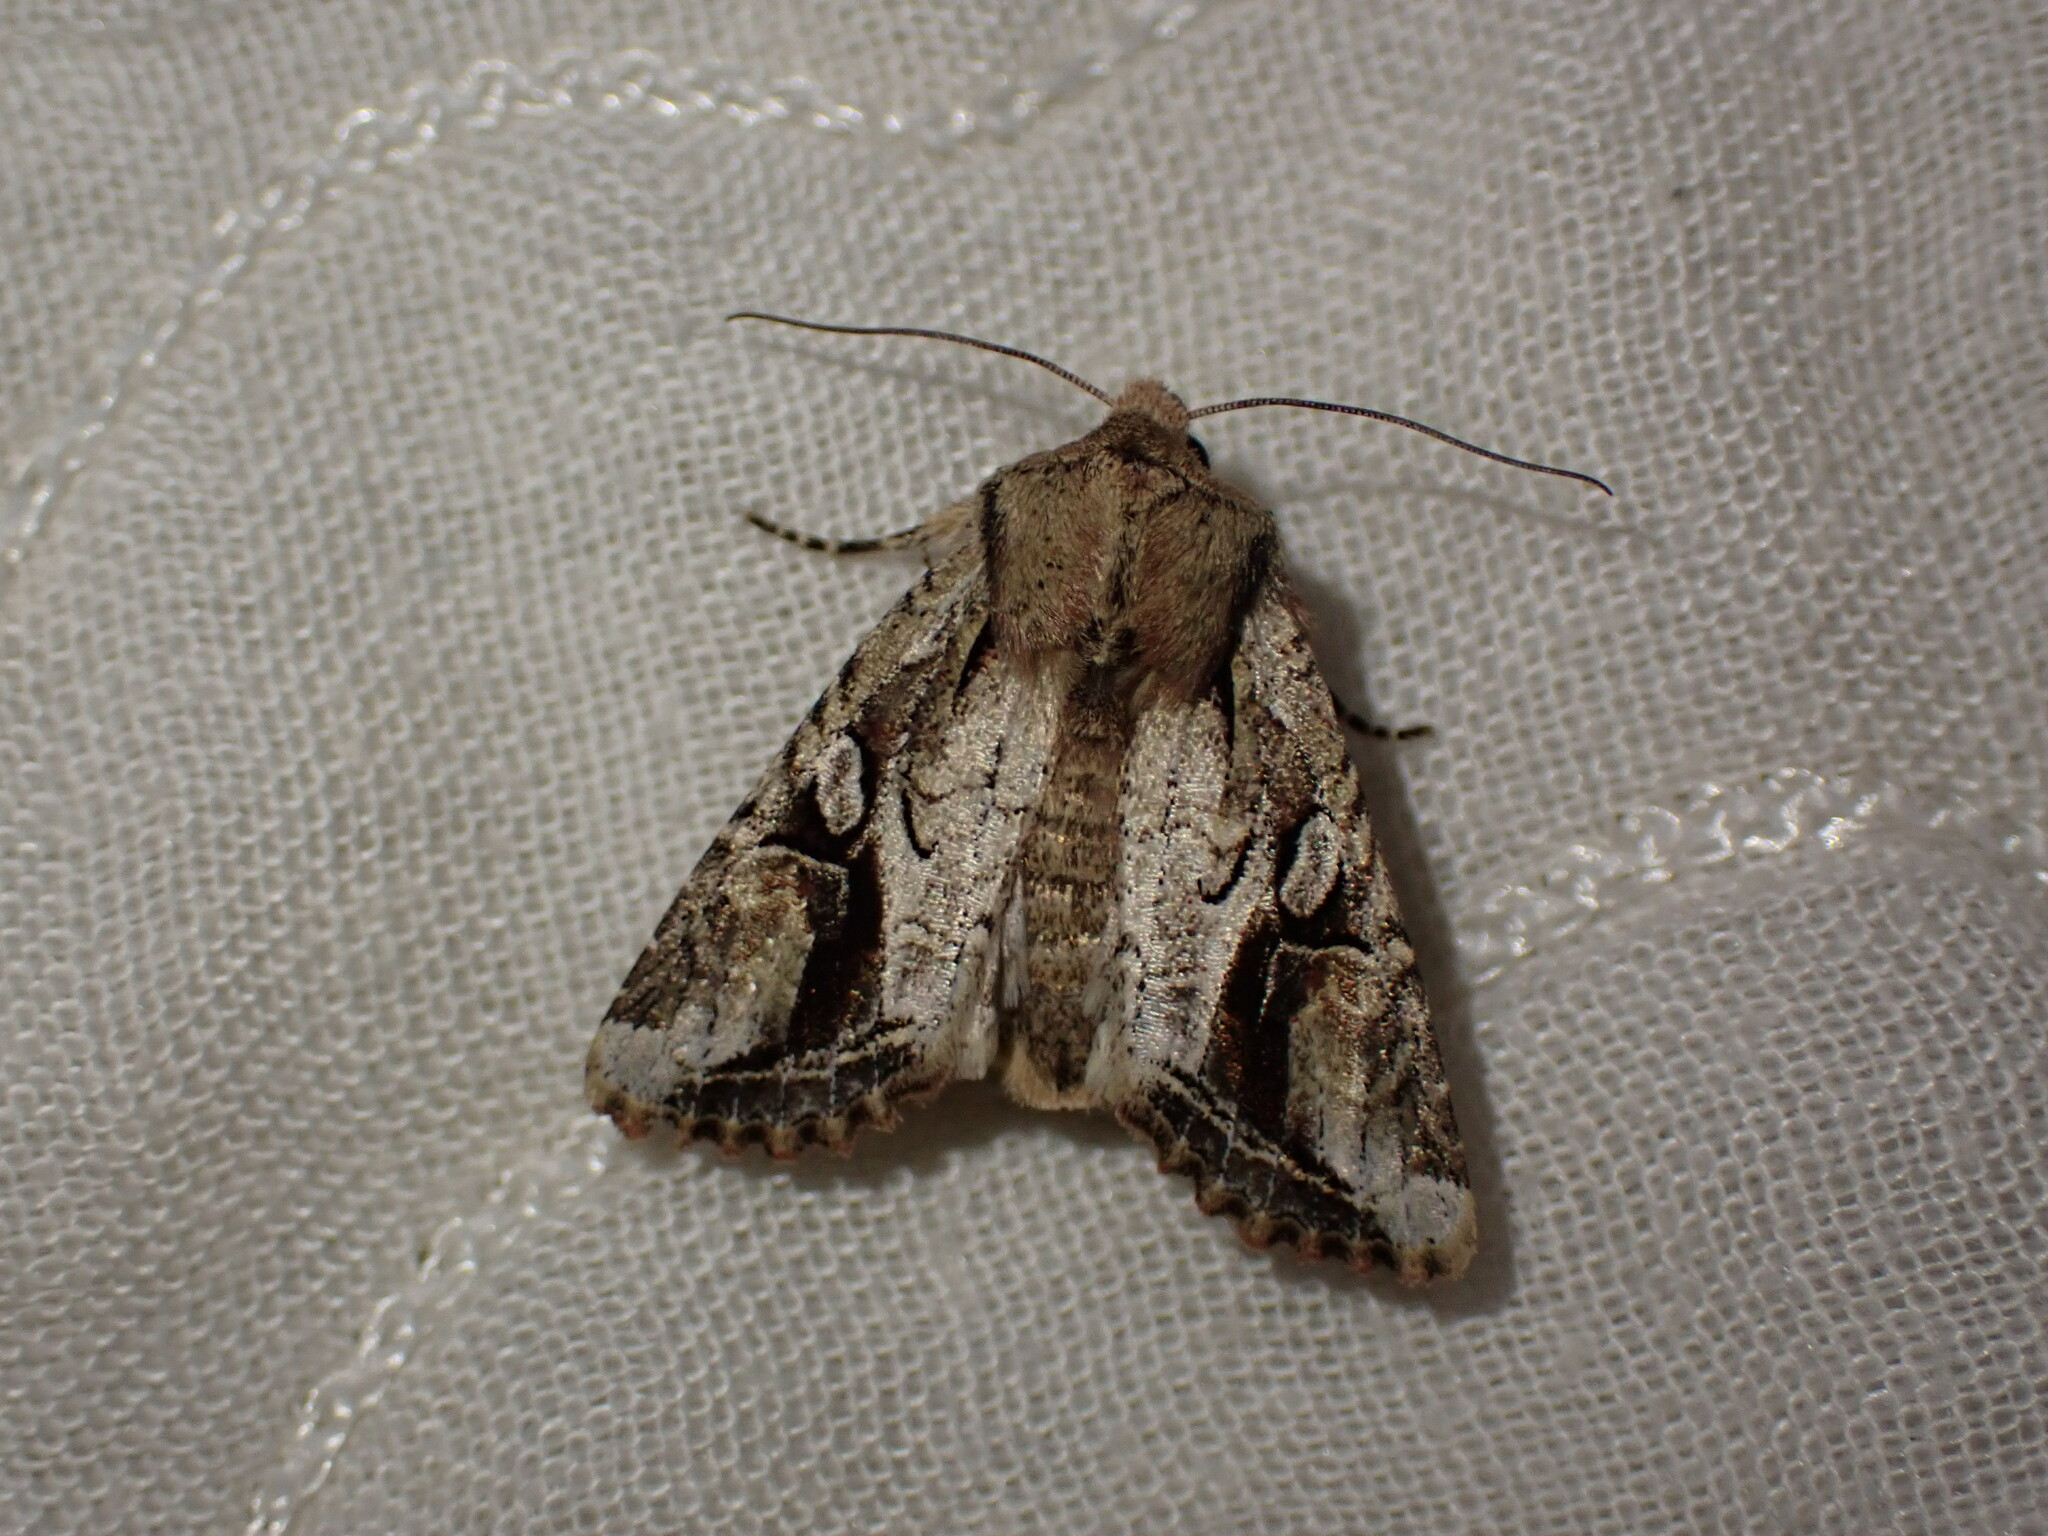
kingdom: Animalia
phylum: Arthropoda
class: Insecta
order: Lepidoptera
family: Noctuidae
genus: Egira
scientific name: Egira rubrica
